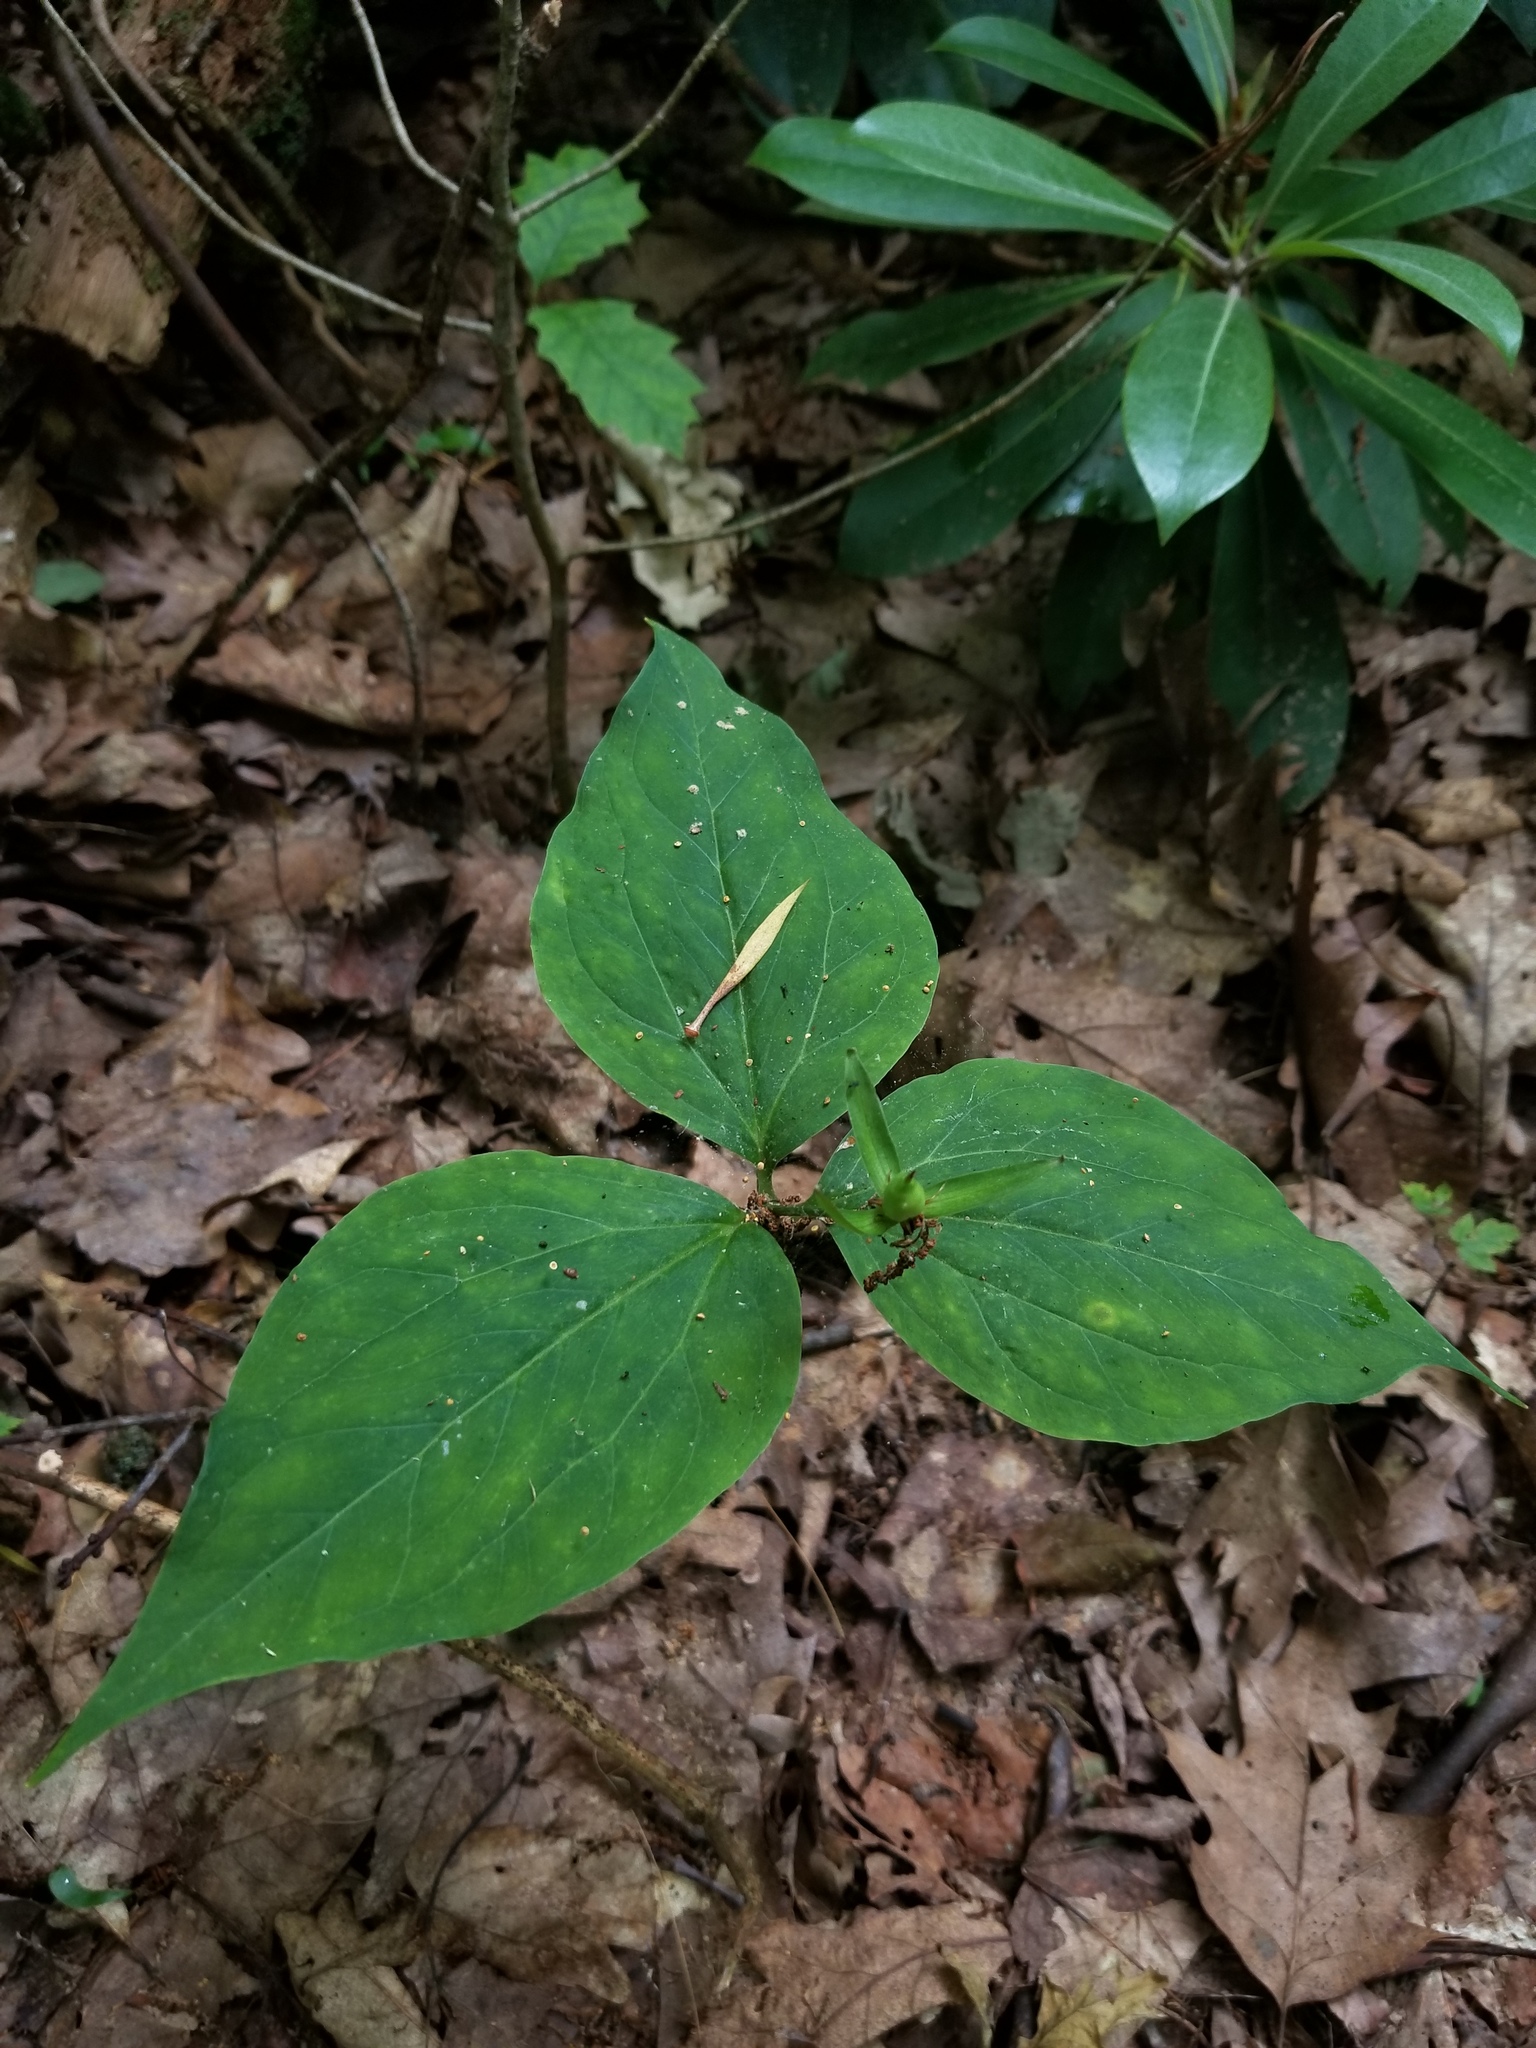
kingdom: Plantae
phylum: Tracheophyta
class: Liliopsida
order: Liliales
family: Melanthiaceae
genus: Trillium
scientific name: Trillium undulatum
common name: Paint trillium
